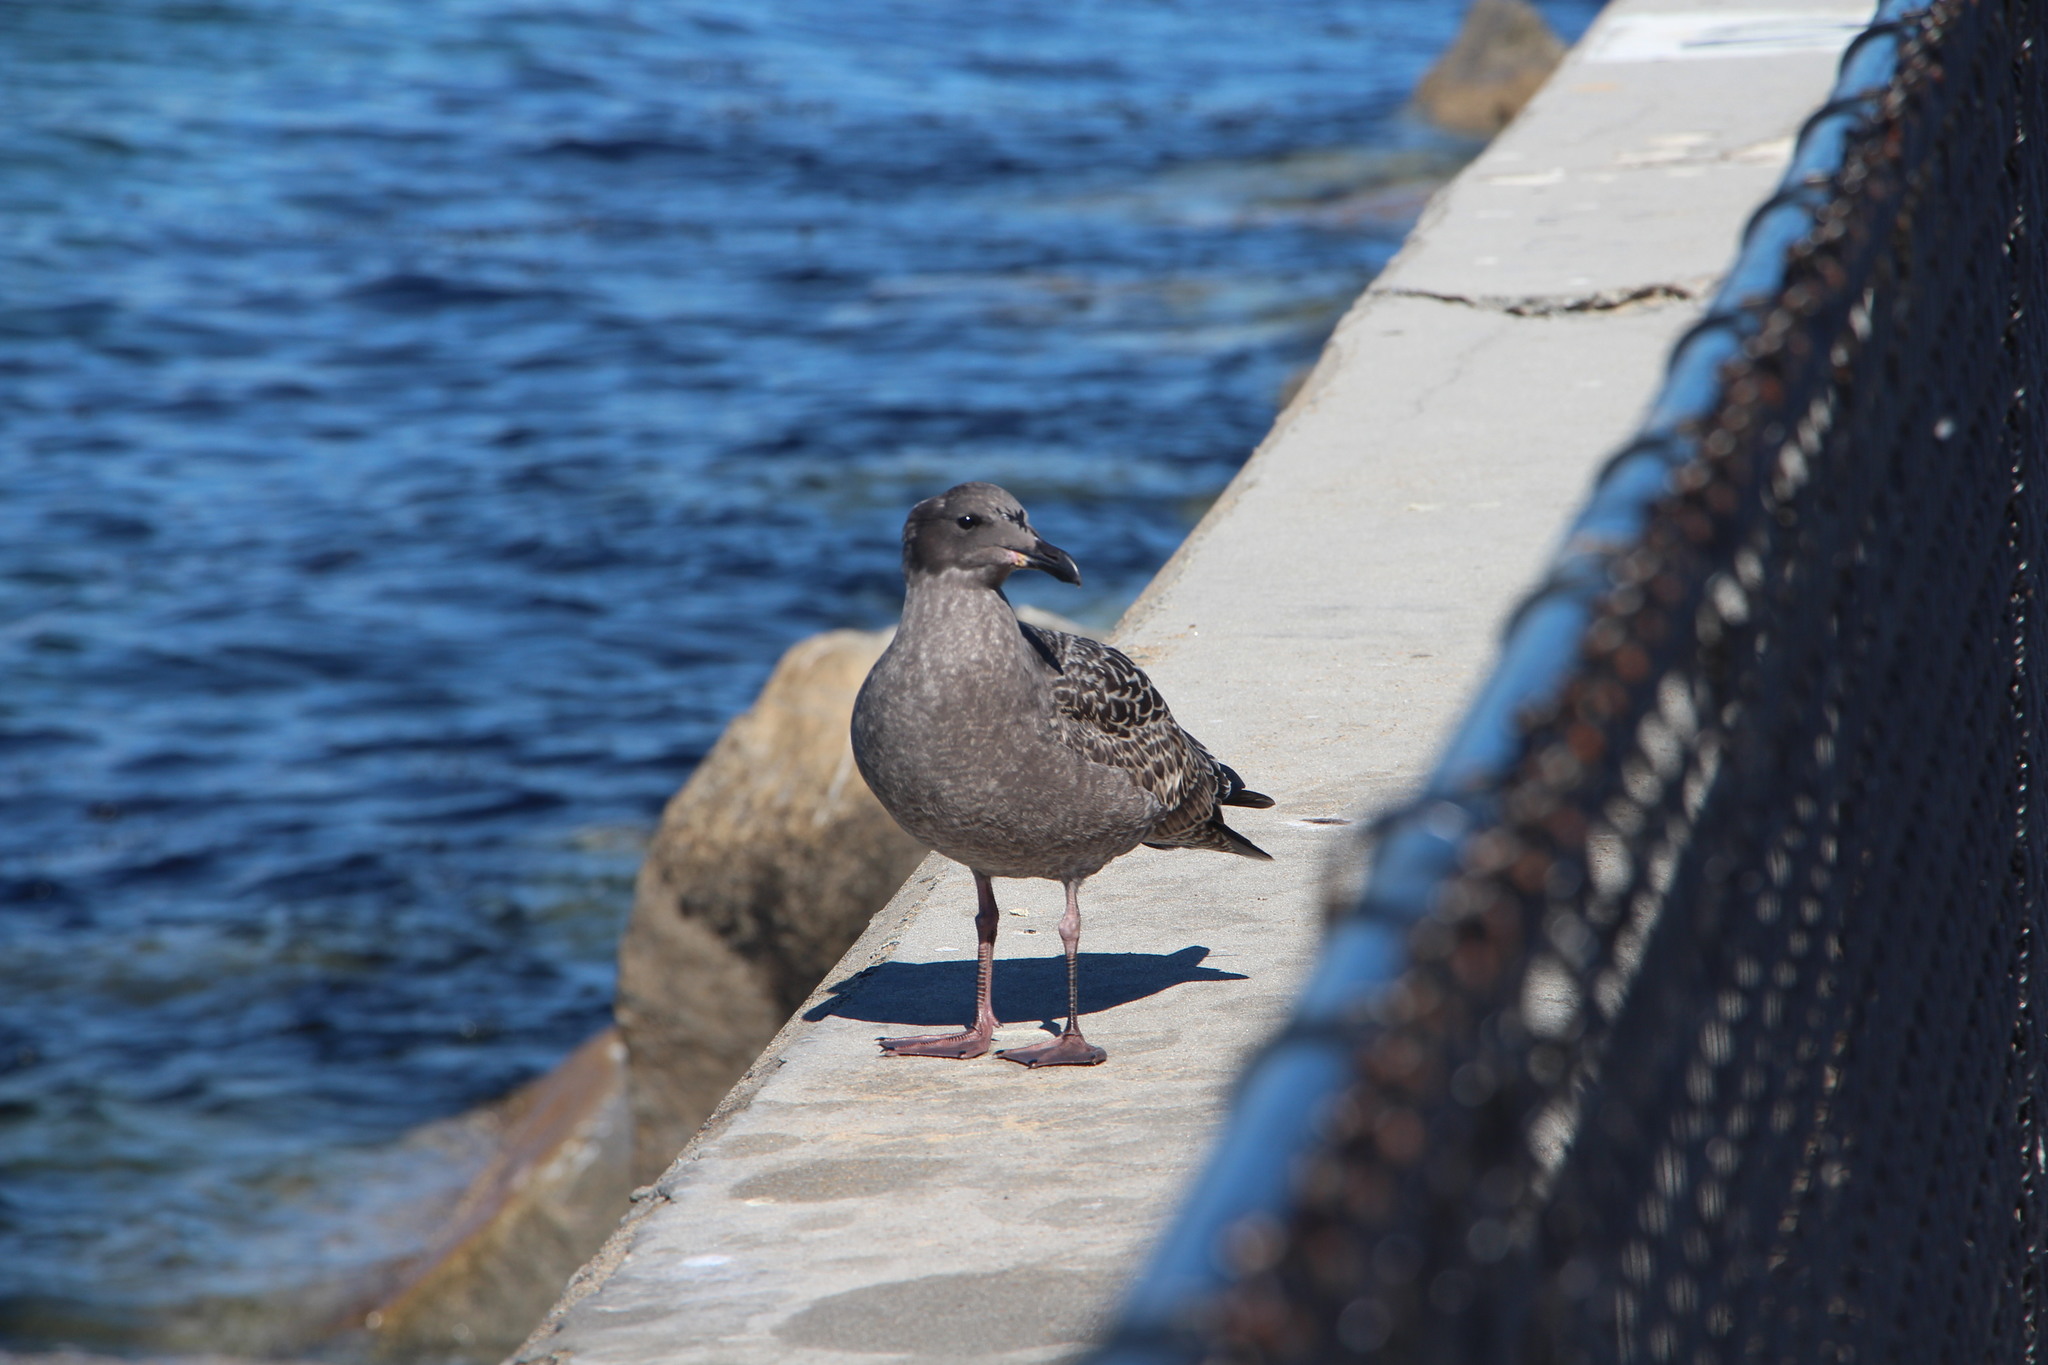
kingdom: Animalia
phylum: Chordata
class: Aves
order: Charadriiformes
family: Laridae
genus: Larus
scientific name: Larus heermanni
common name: Heermann's gull
